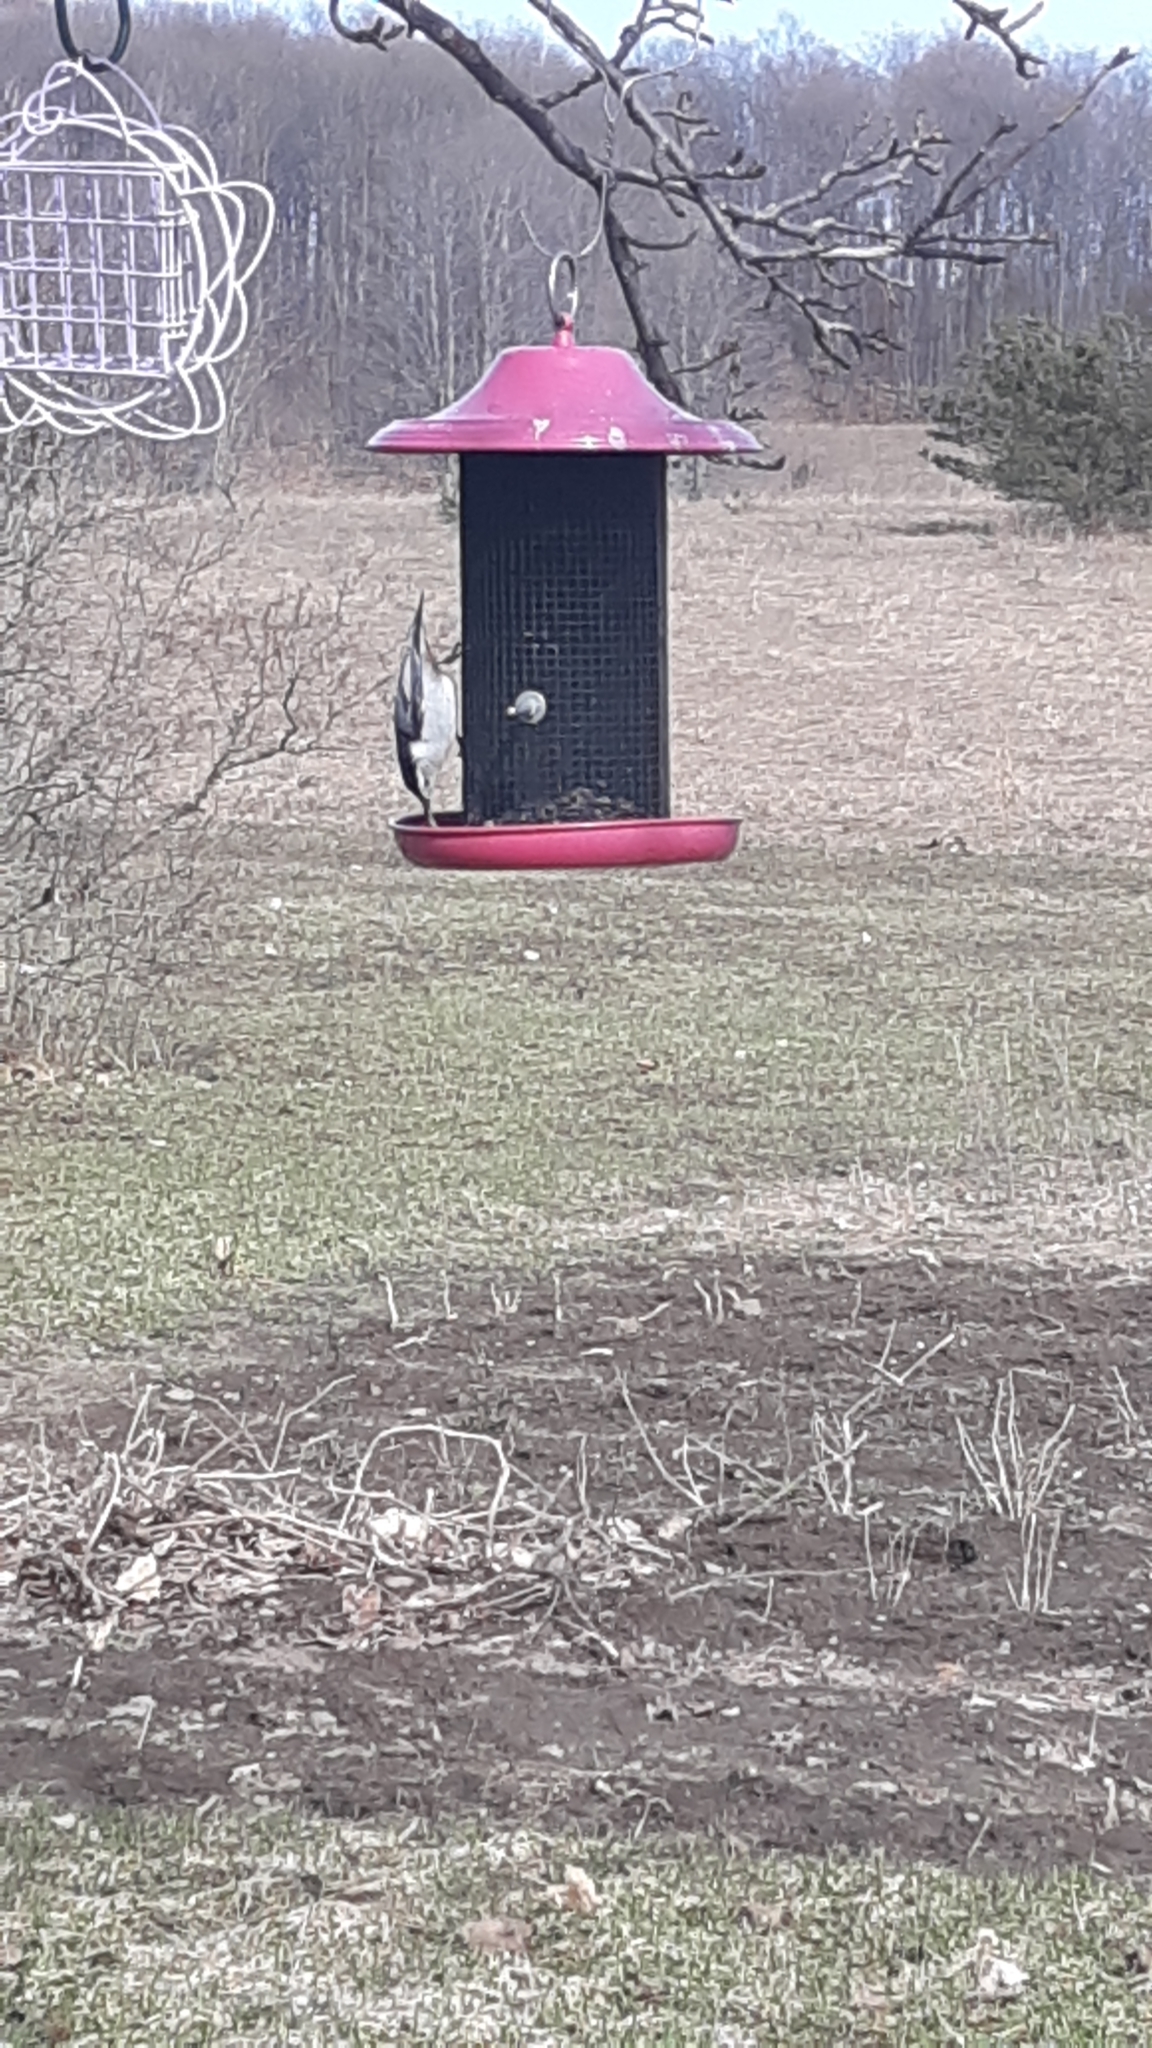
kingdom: Animalia
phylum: Chordata
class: Aves
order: Passeriformes
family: Sittidae
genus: Sitta
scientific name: Sitta carolinensis
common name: White-breasted nuthatch
